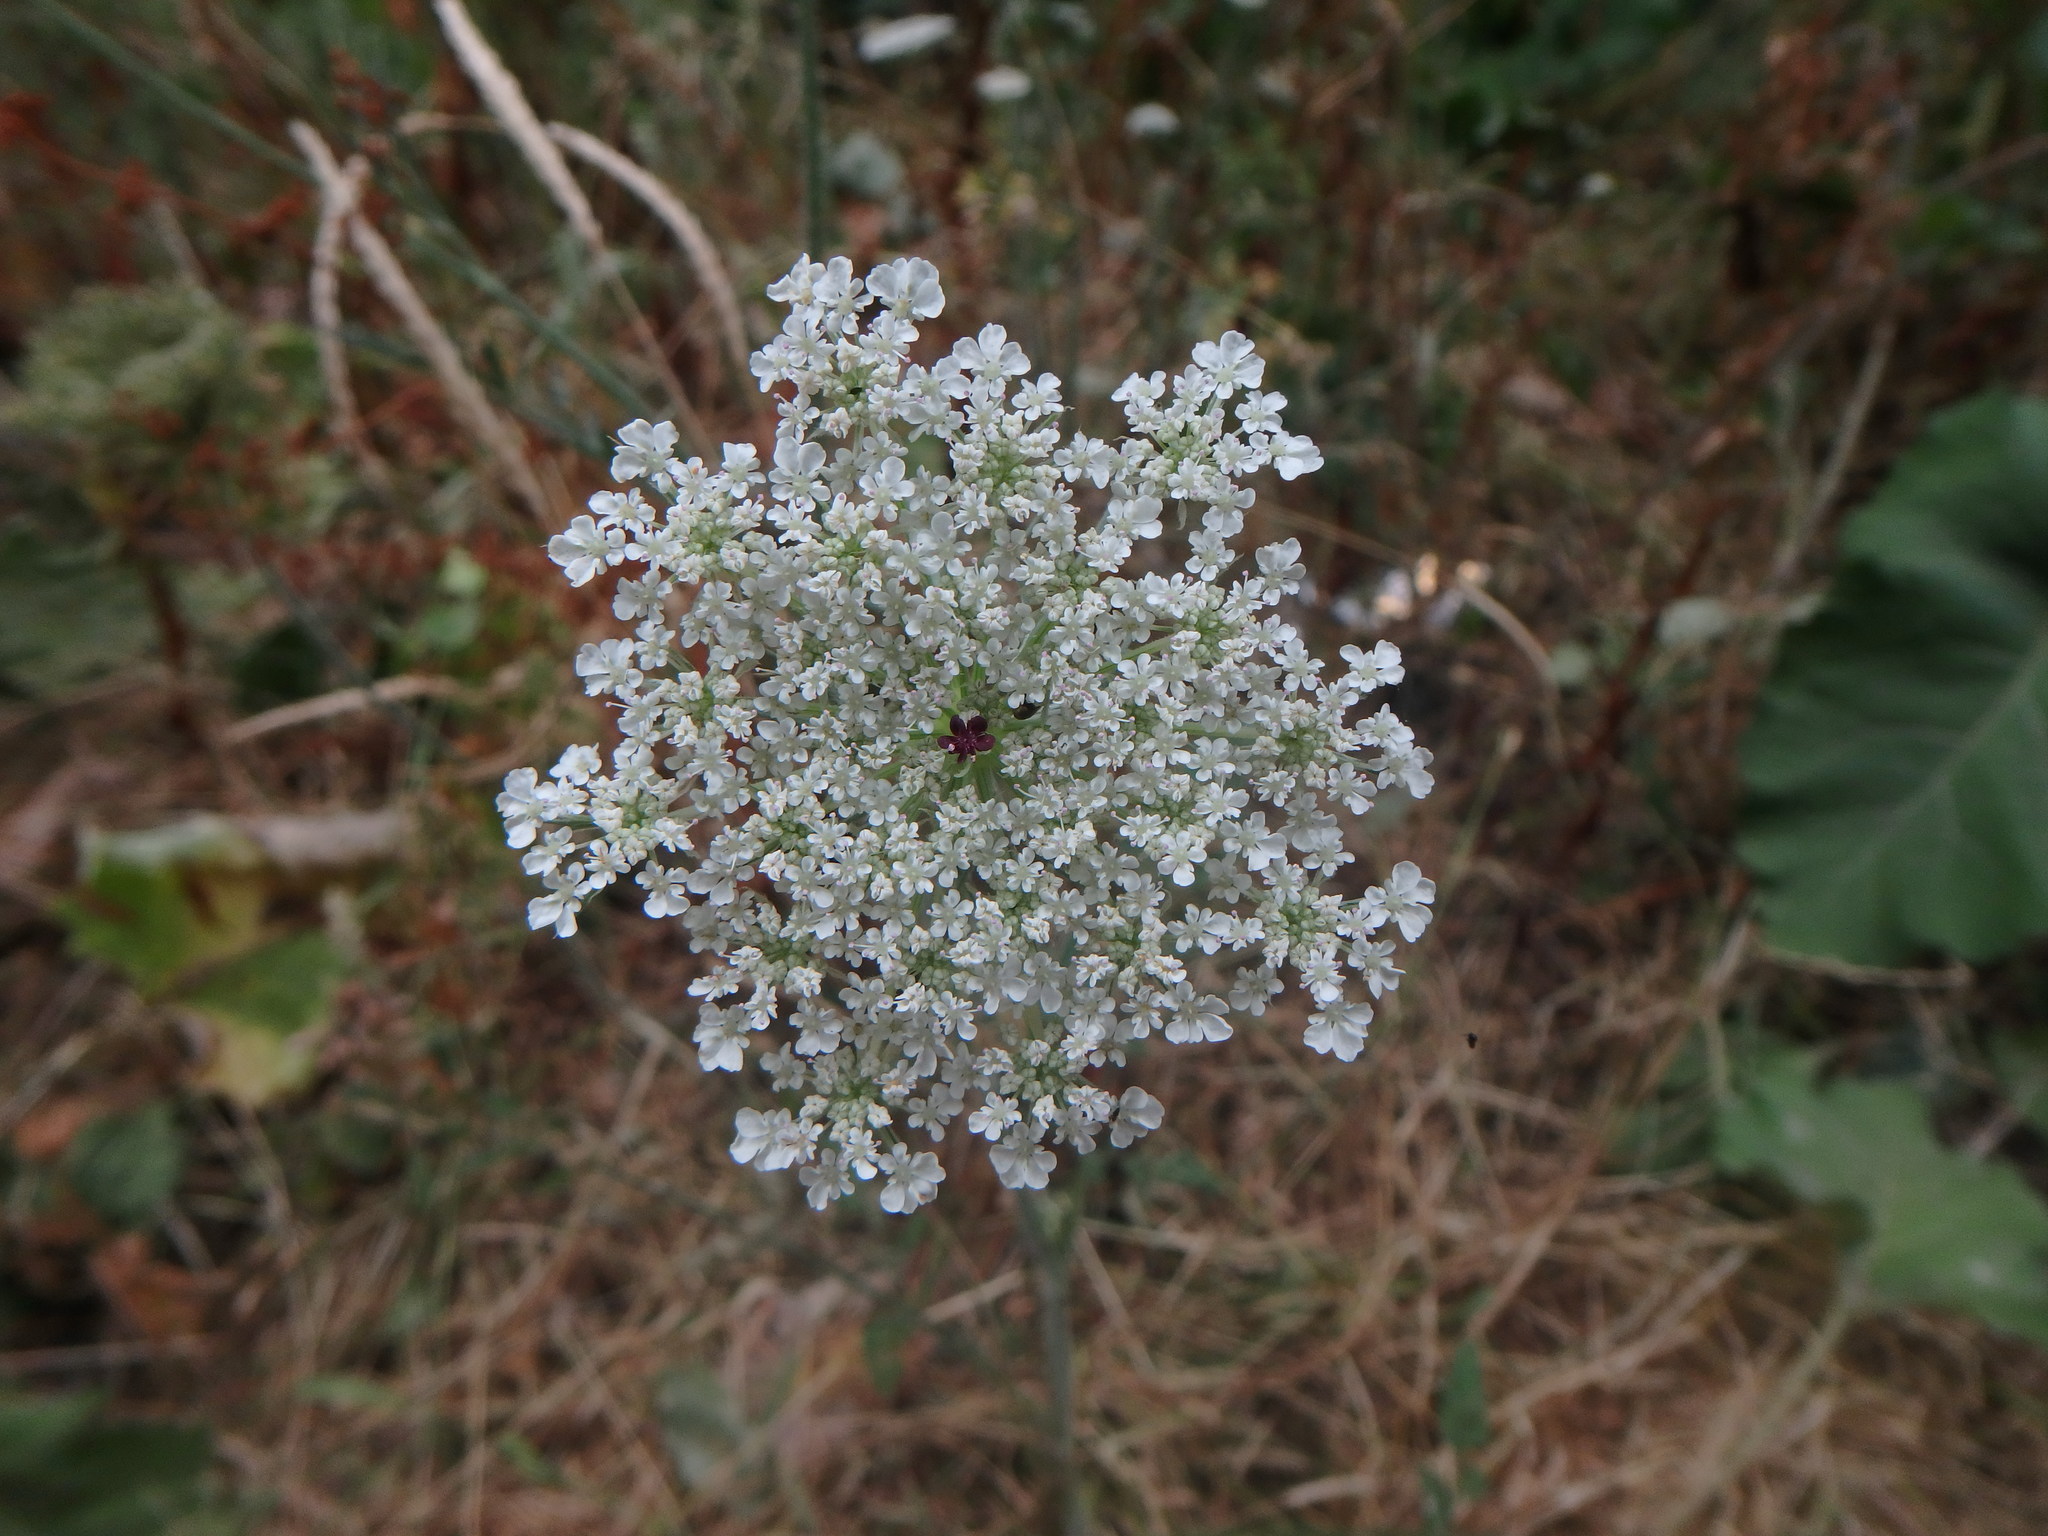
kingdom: Plantae
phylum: Tracheophyta
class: Magnoliopsida
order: Apiales
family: Apiaceae
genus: Daucus
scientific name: Daucus carota
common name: Wild carrot
